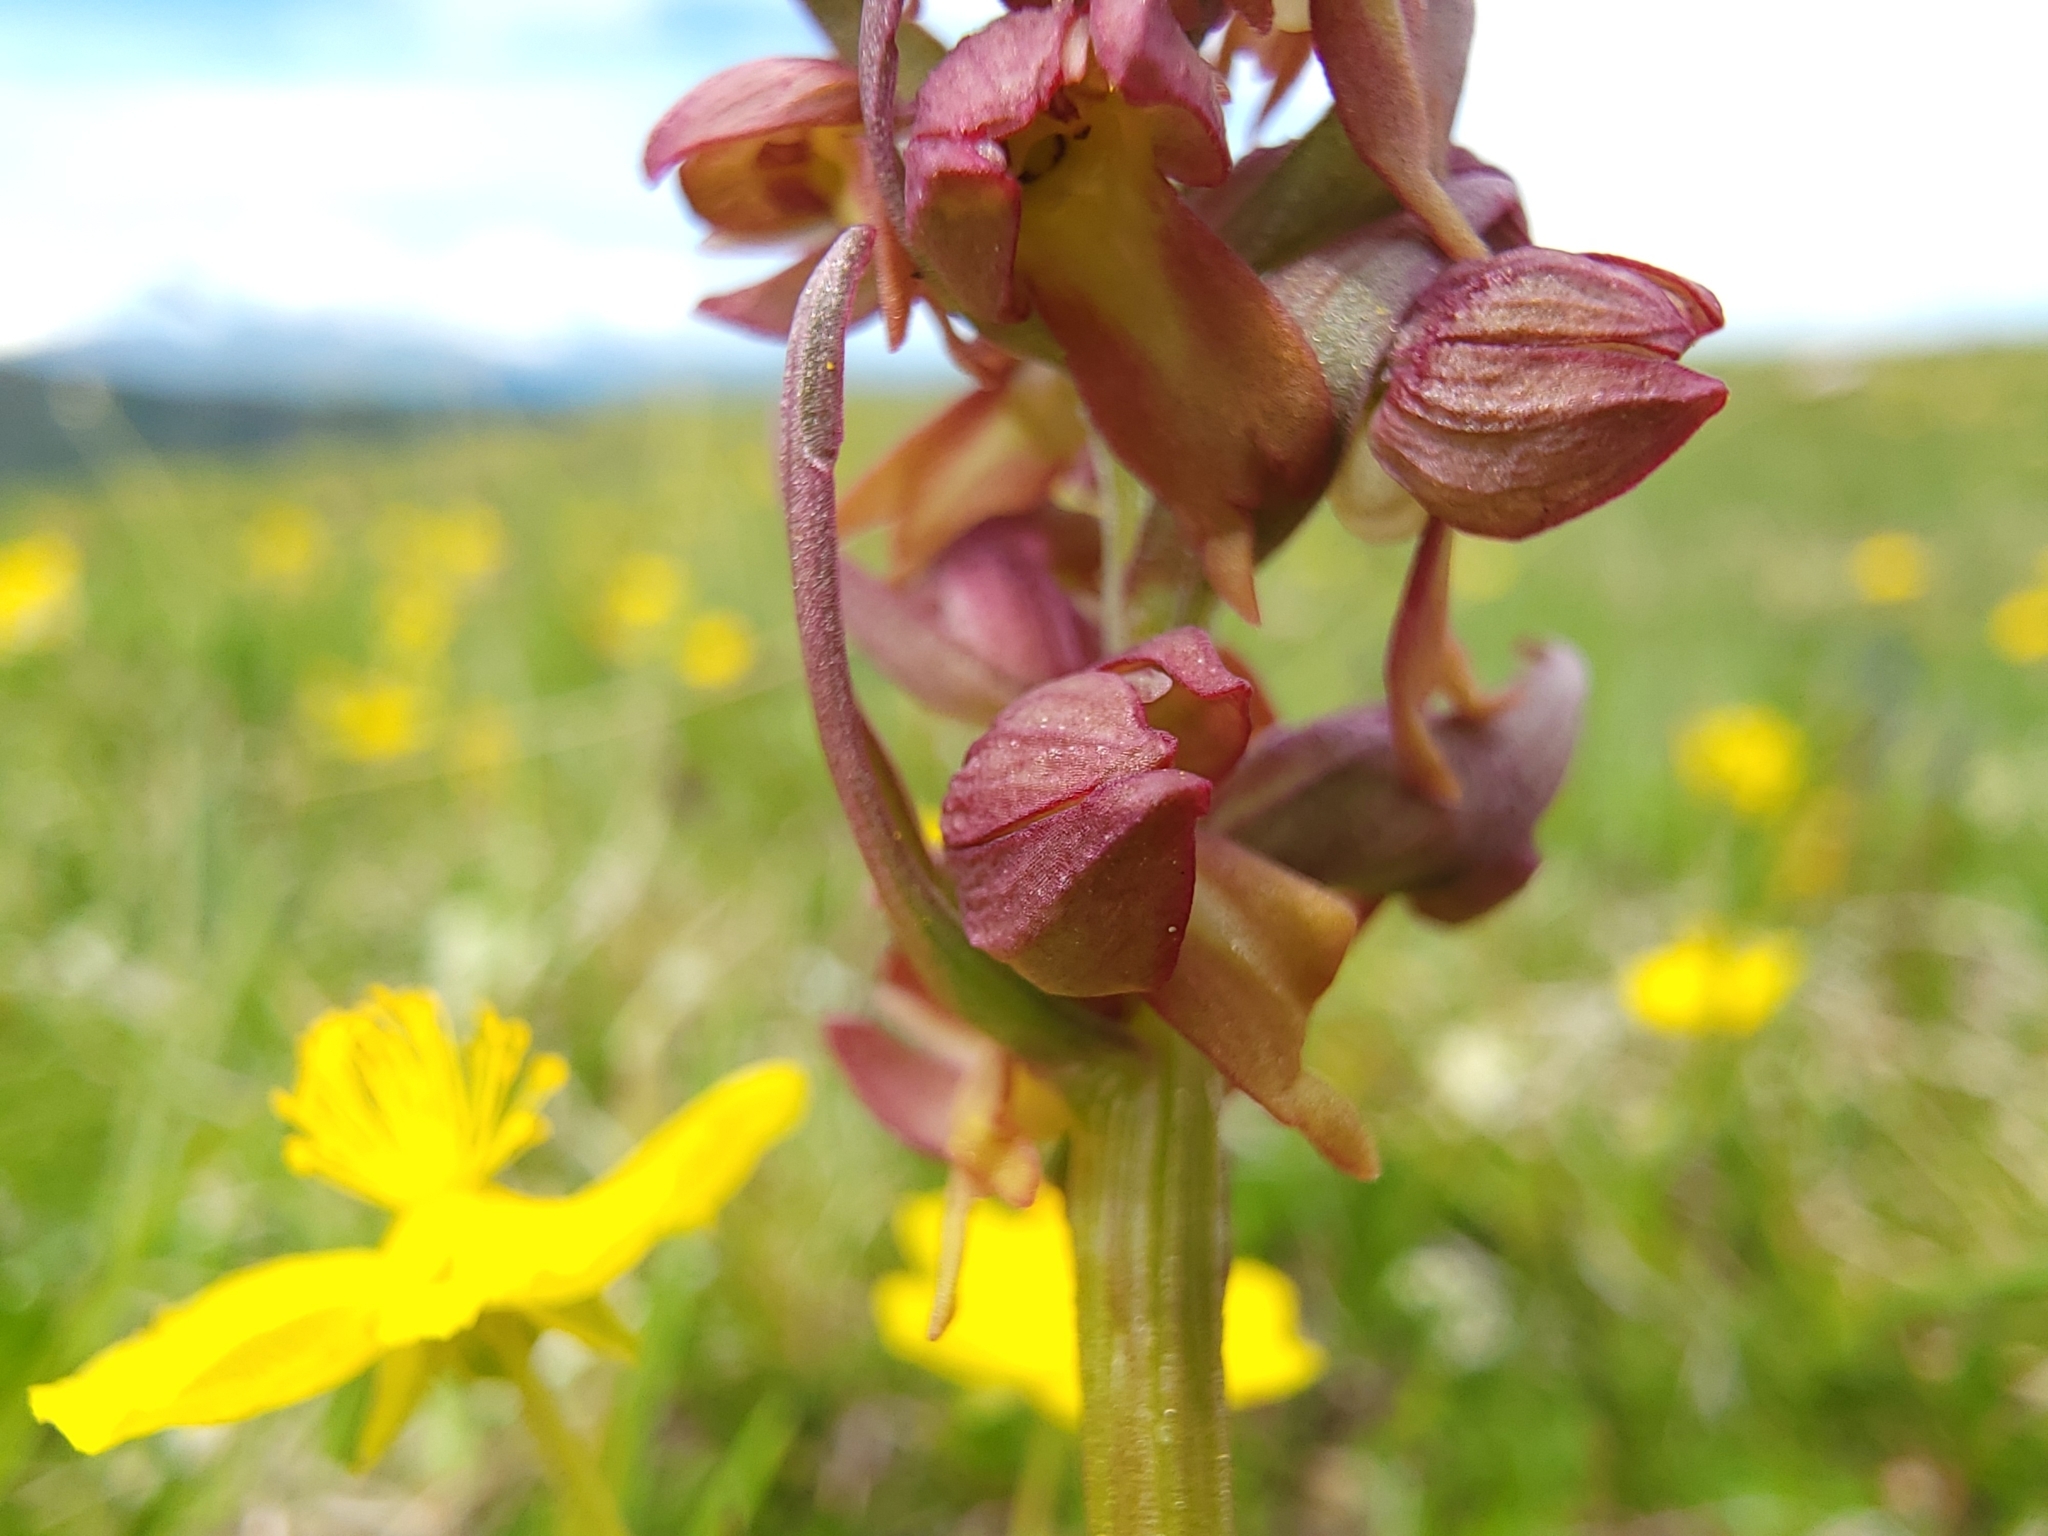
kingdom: Plantae
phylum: Tracheophyta
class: Liliopsida
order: Asparagales
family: Orchidaceae
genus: Dactylorhiza
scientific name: Dactylorhiza viridis
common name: Longbract frog orchid
